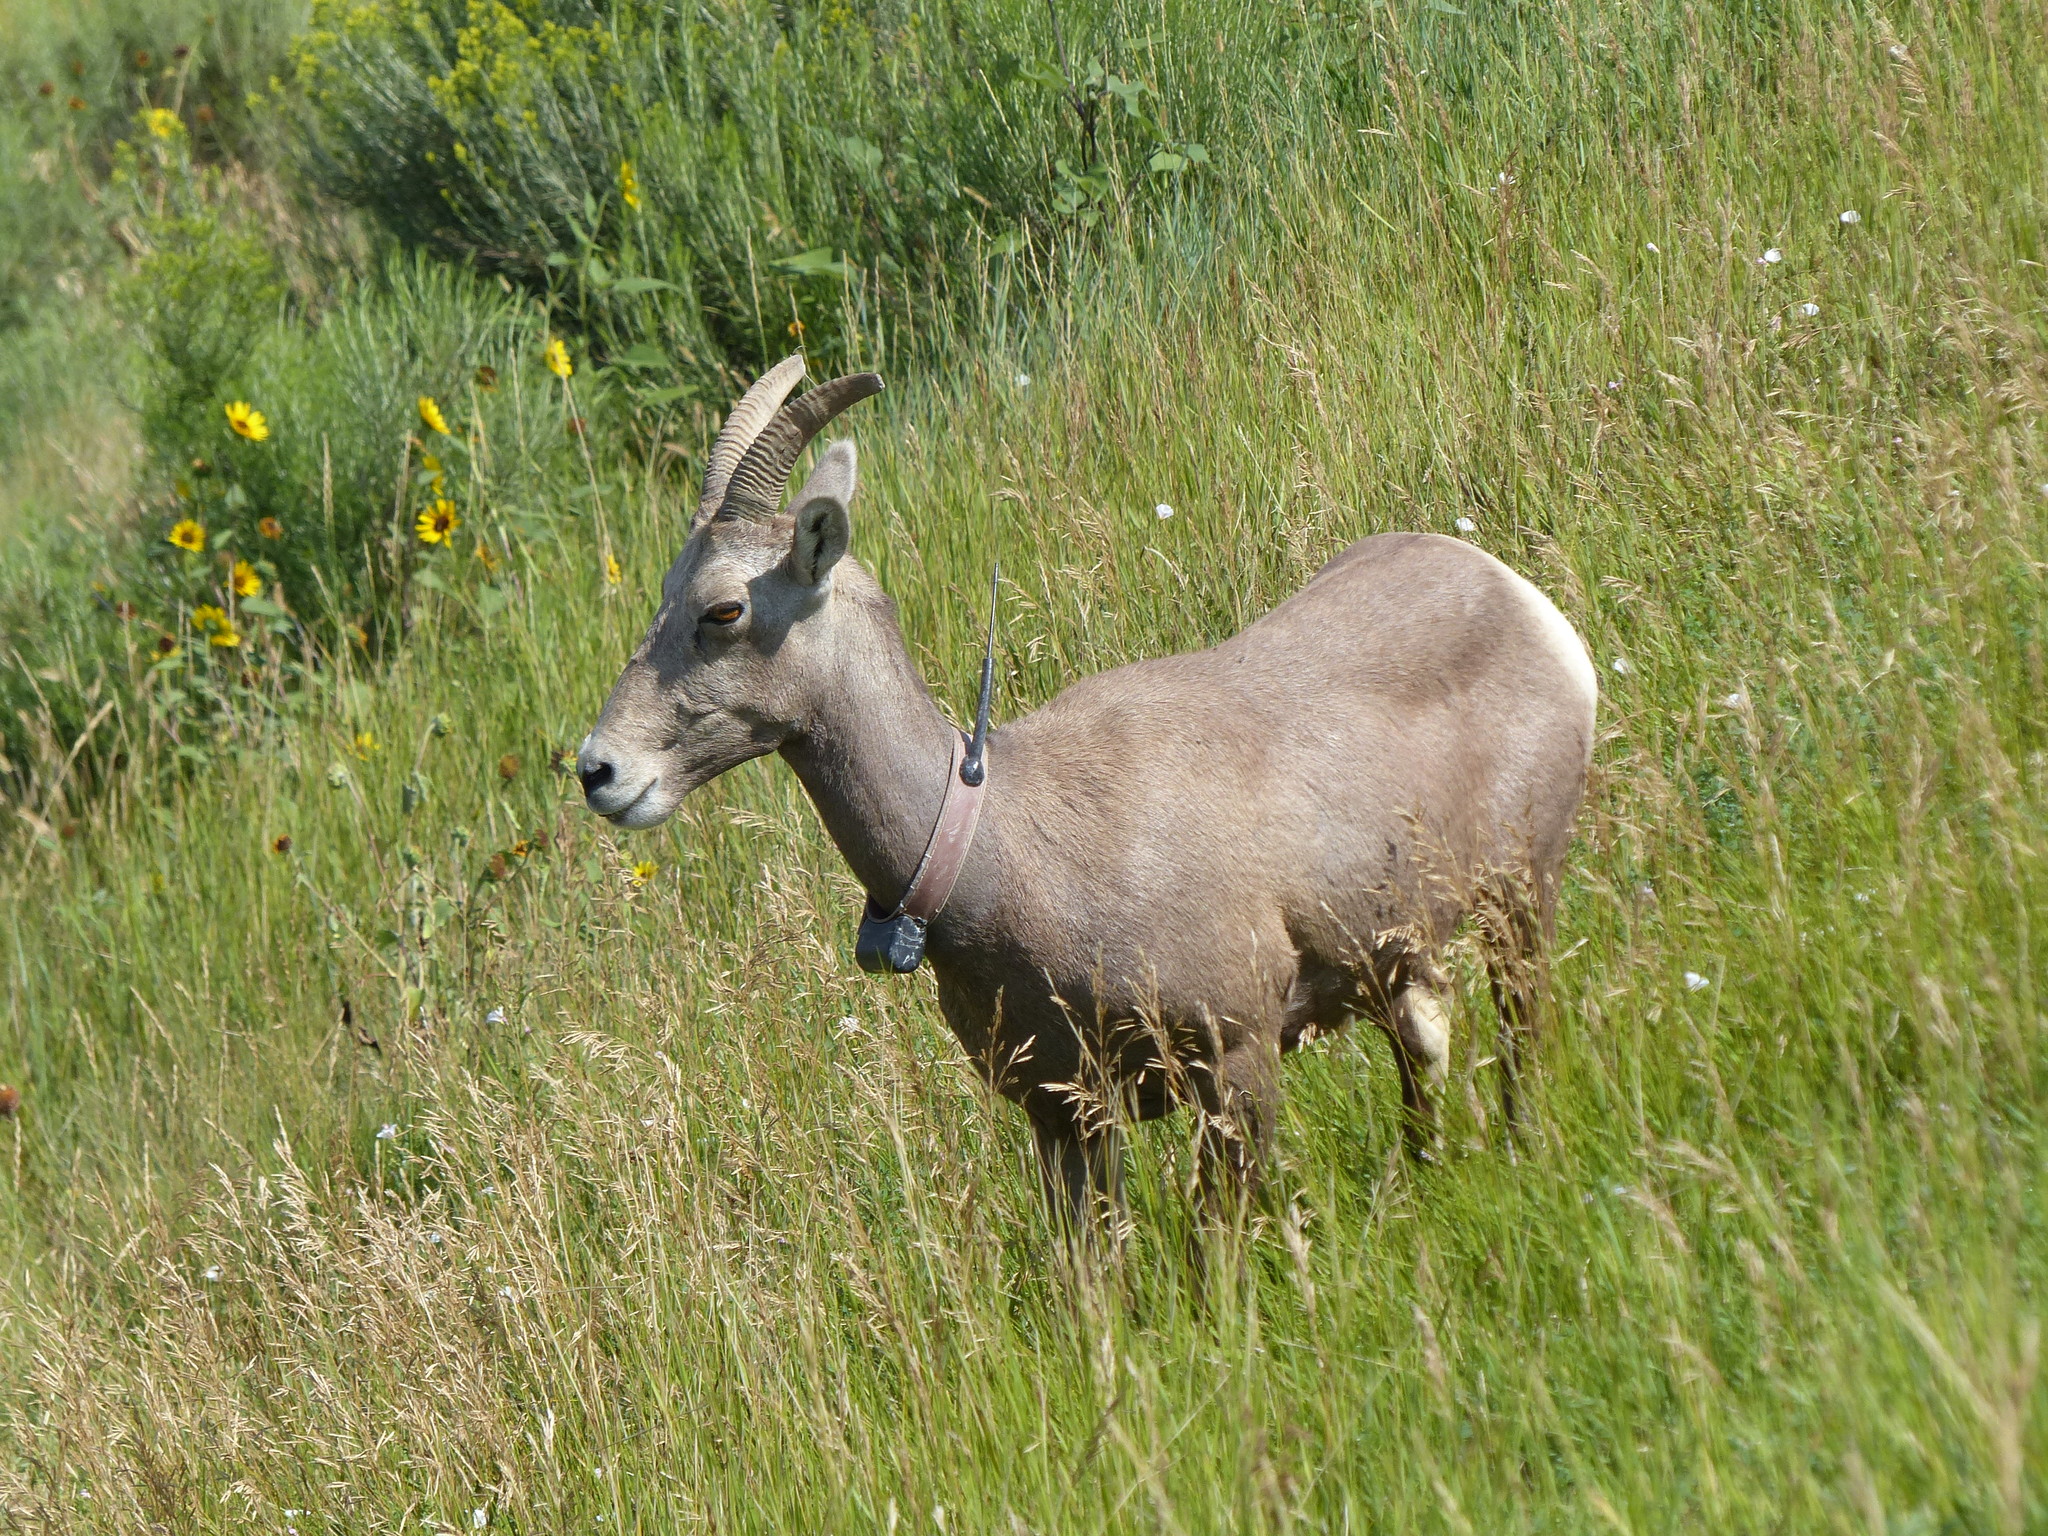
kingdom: Animalia
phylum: Chordata
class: Mammalia
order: Artiodactyla
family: Bovidae
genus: Ovis
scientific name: Ovis canadensis
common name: Bighorn sheep
